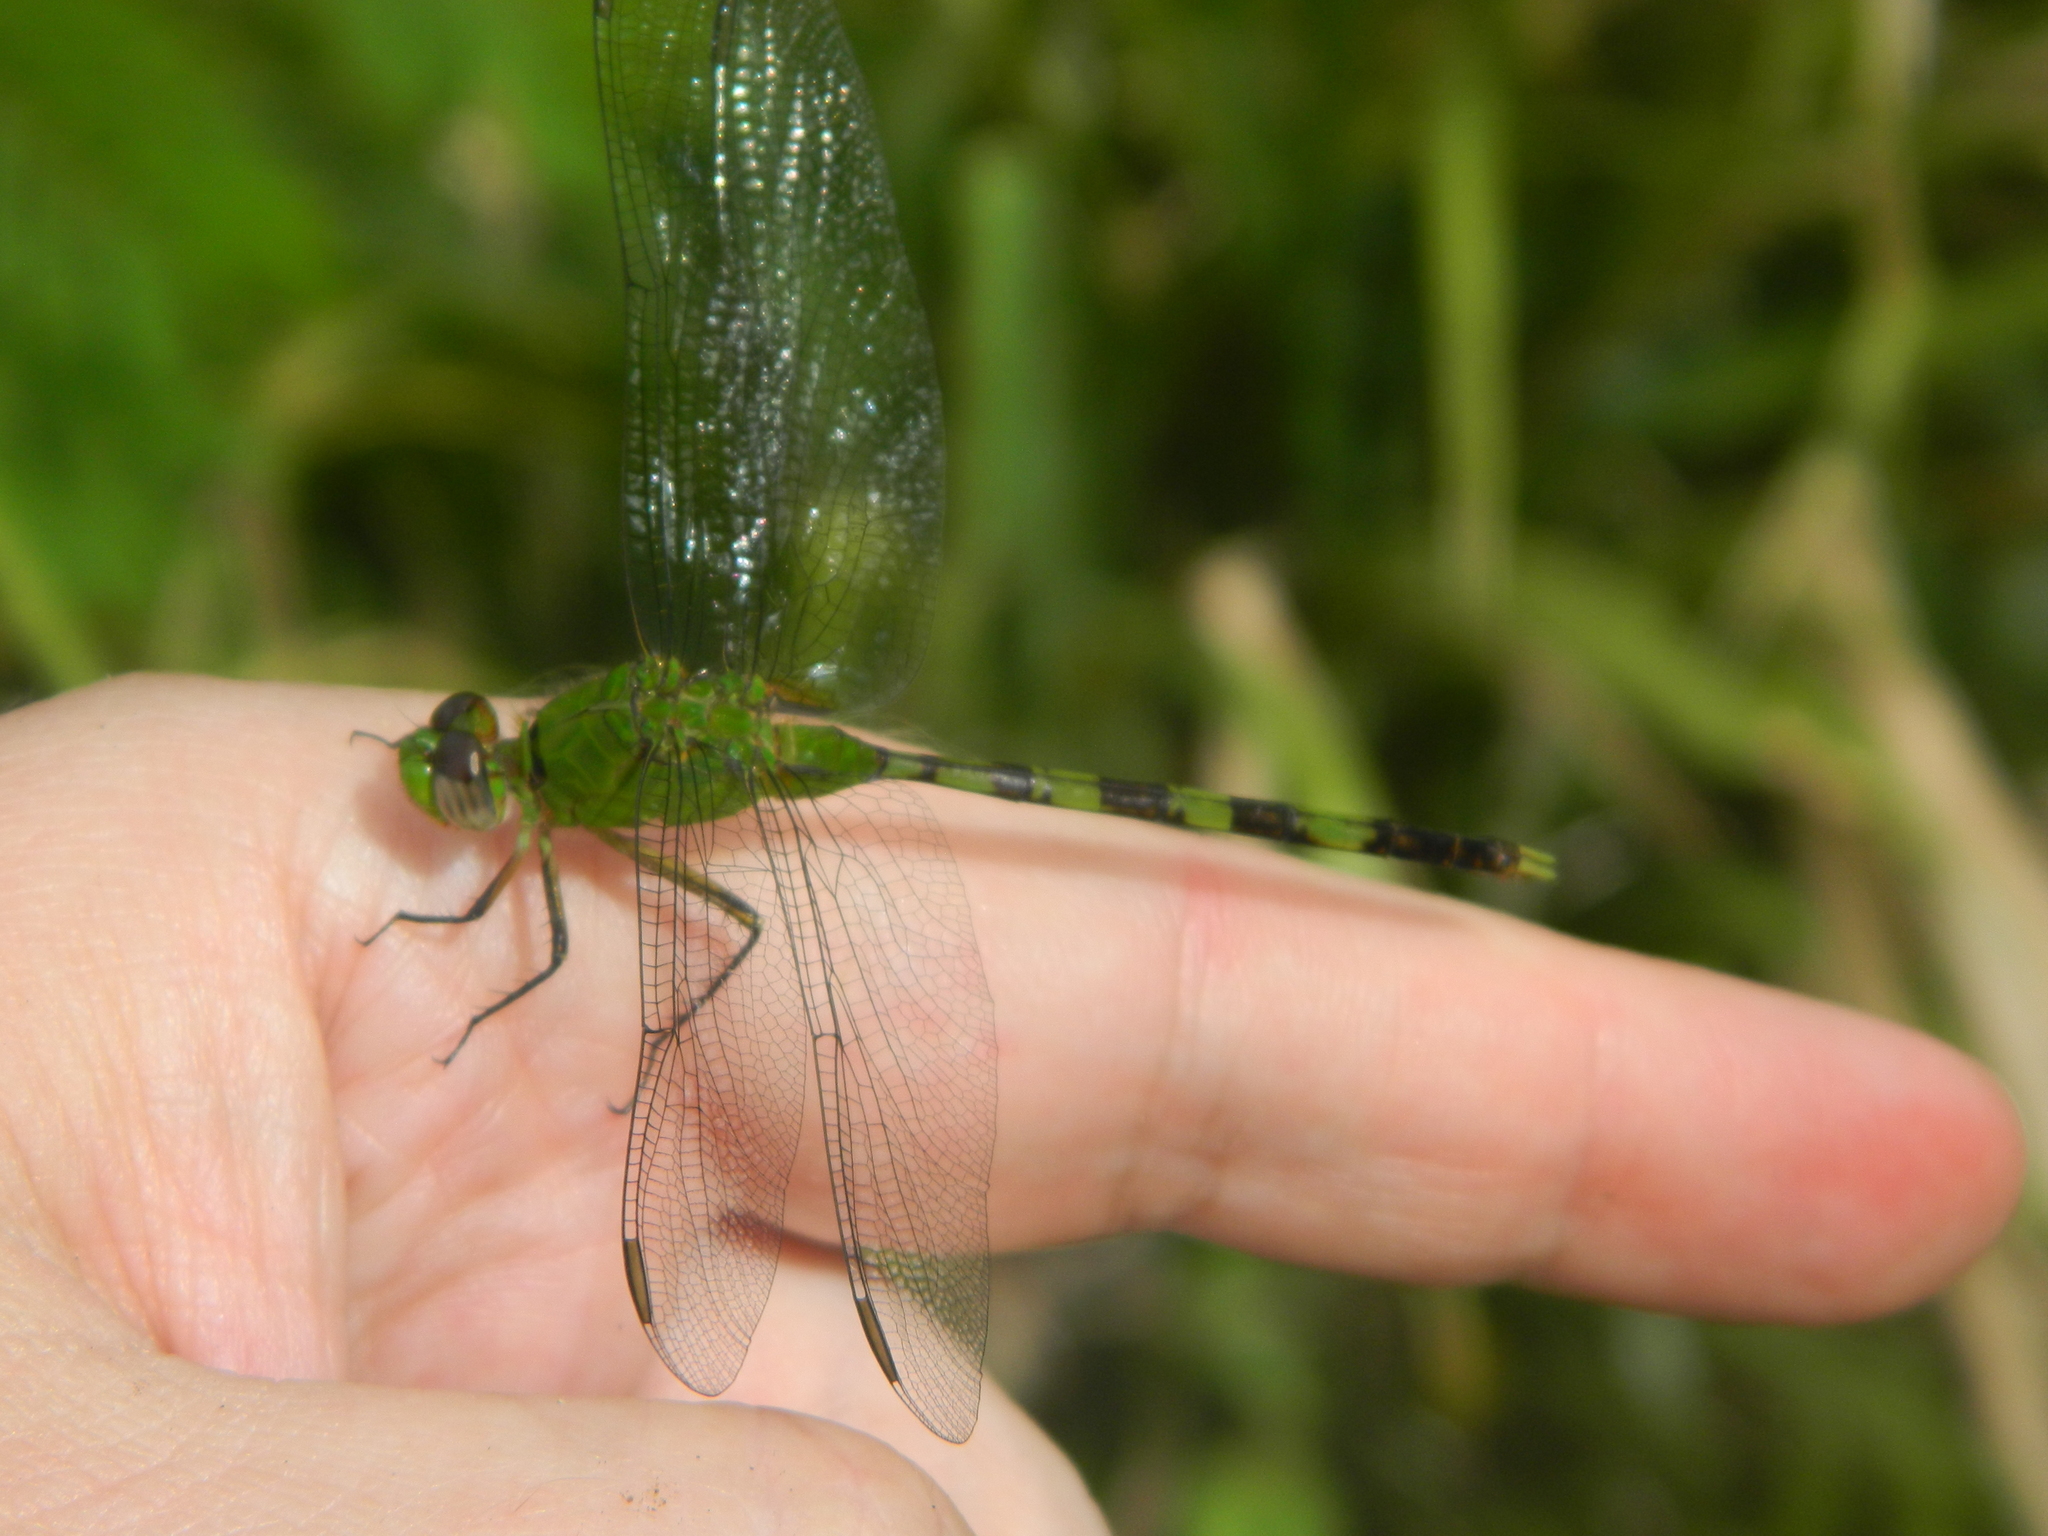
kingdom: Animalia
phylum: Arthropoda
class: Insecta
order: Odonata
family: Libellulidae
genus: Erythemis
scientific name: Erythemis vesiculosa
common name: Great pondhawk
